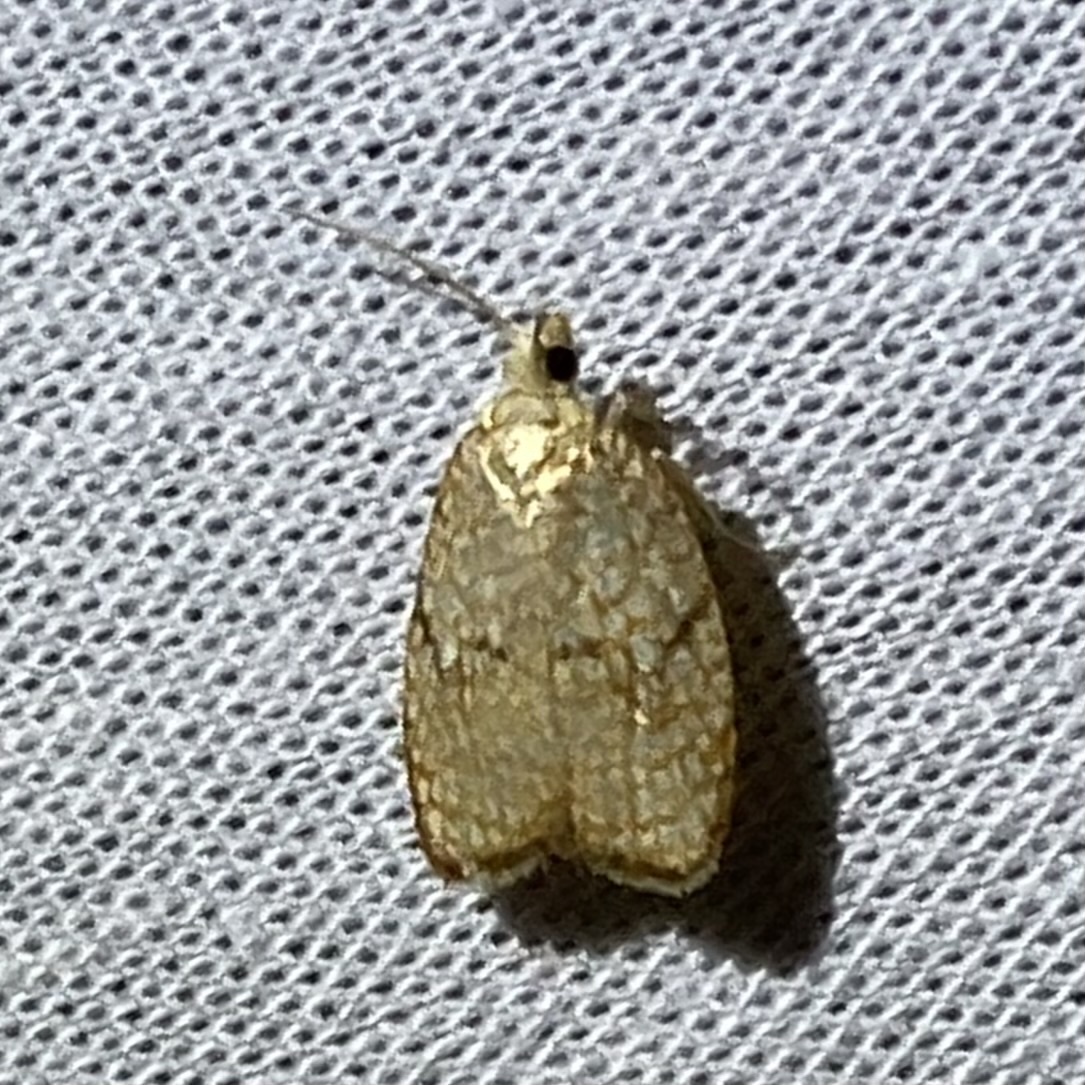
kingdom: Animalia
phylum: Arthropoda
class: Insecta
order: Lepidoptera
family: Tortricidae
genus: Acleris
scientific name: Acleris forsskaleana
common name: Maple button
